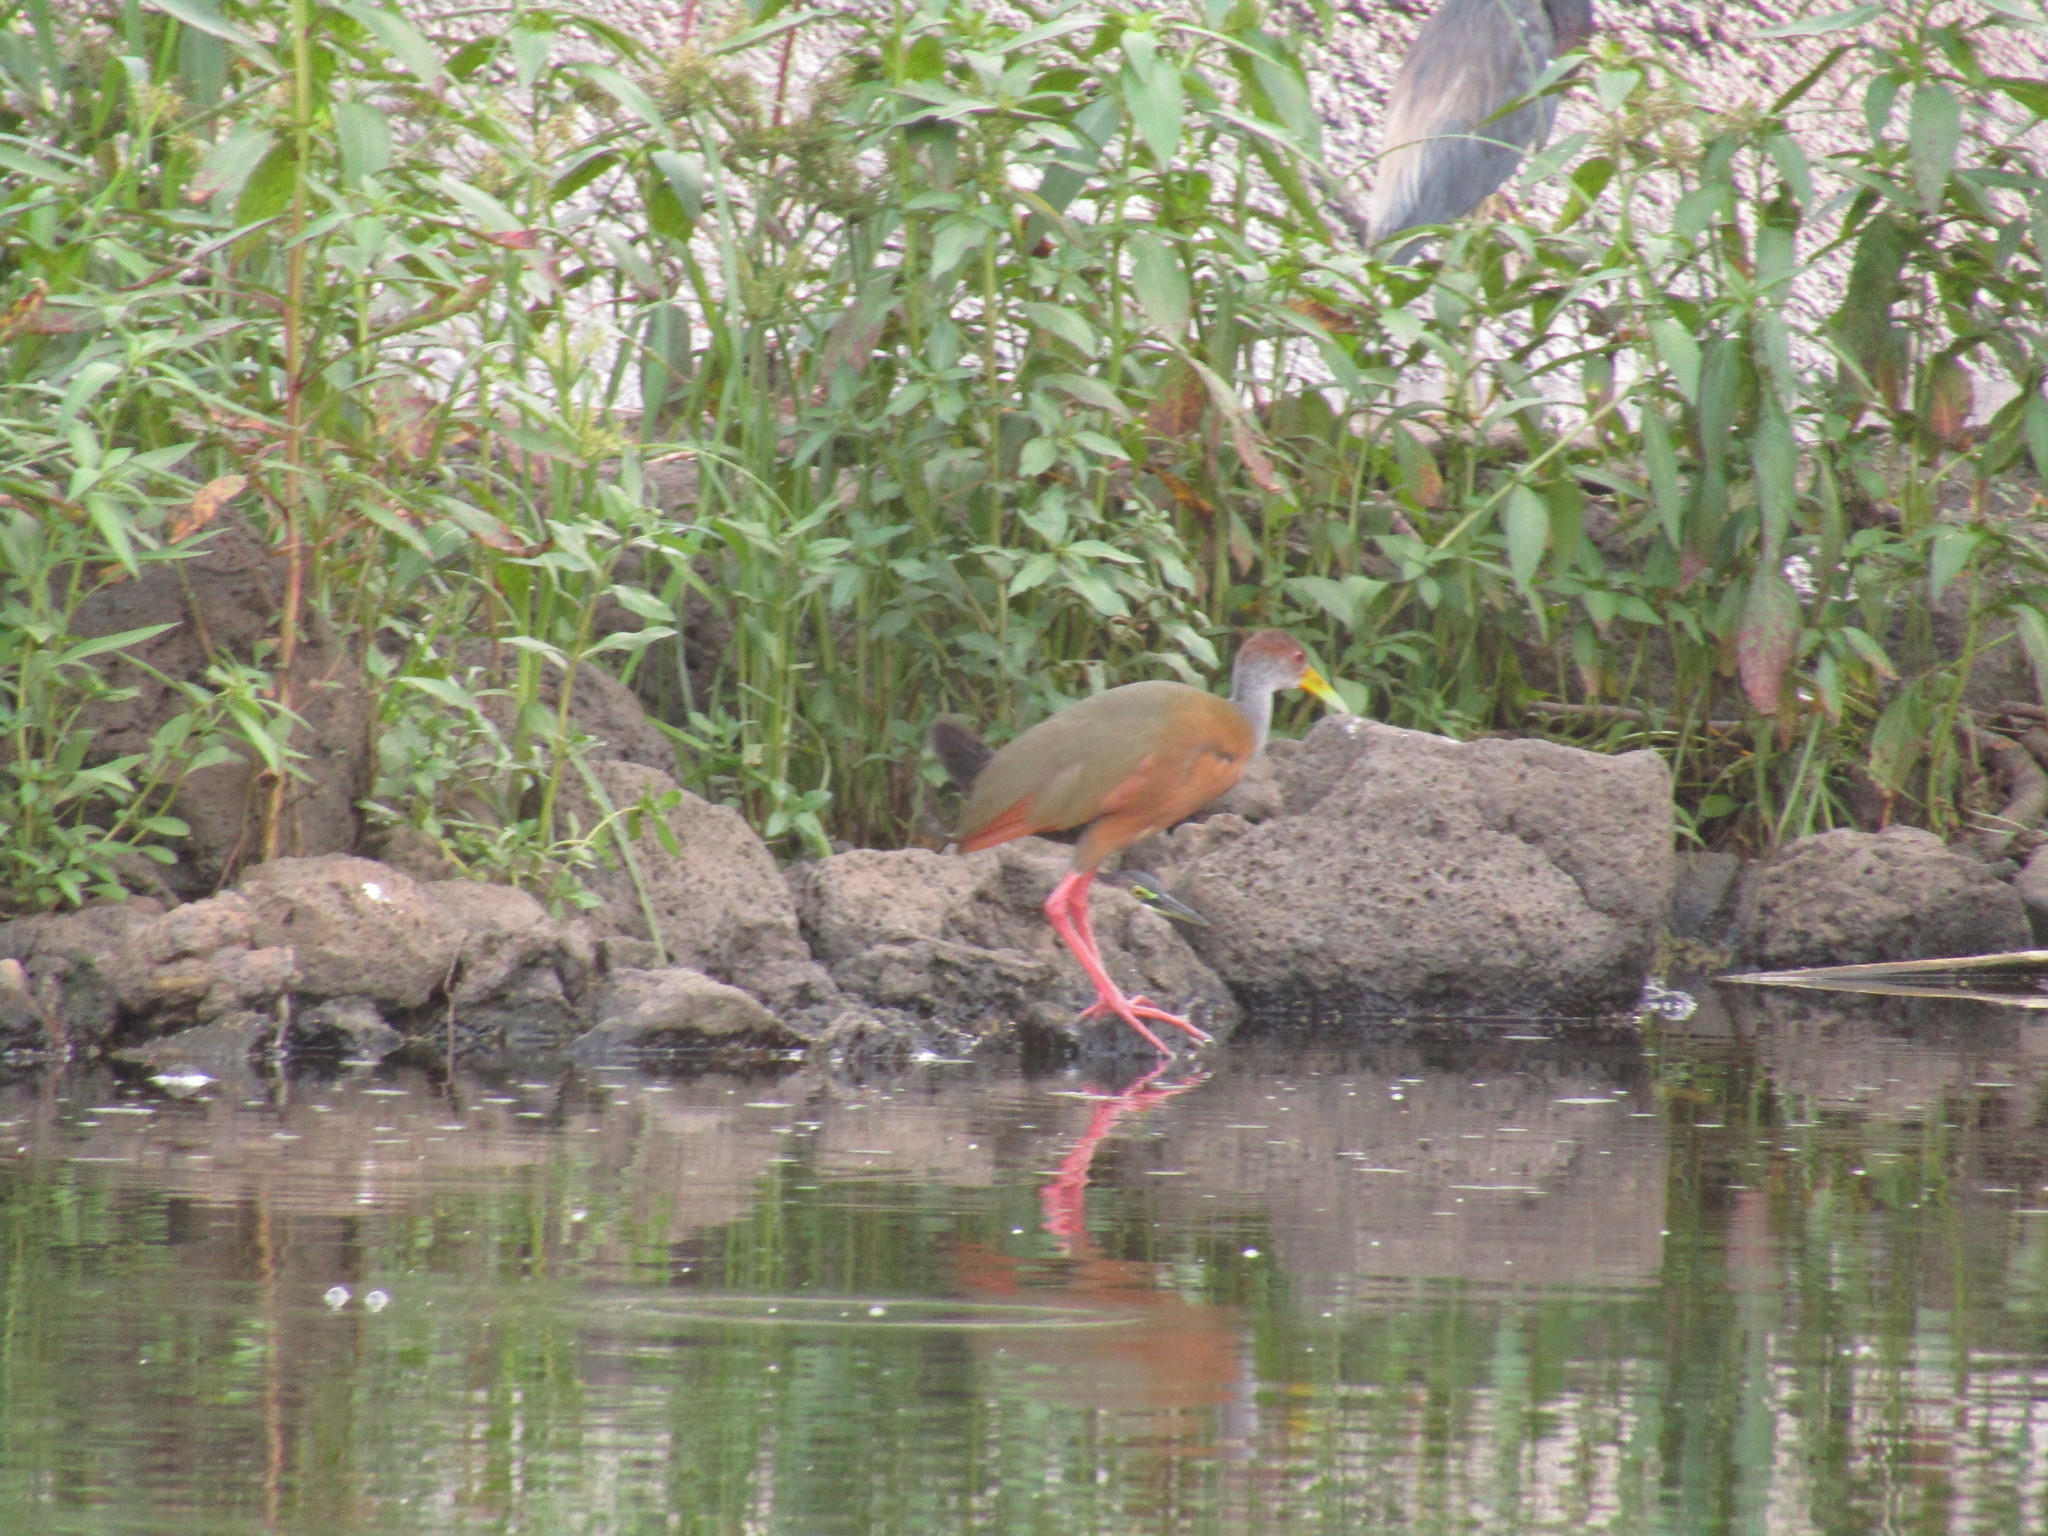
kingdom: Animalia
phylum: Chordata
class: Aves
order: Gruiformes
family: Rallidae
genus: Aramides
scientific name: Aramides albiventris
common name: Russet-naped wood-rail
